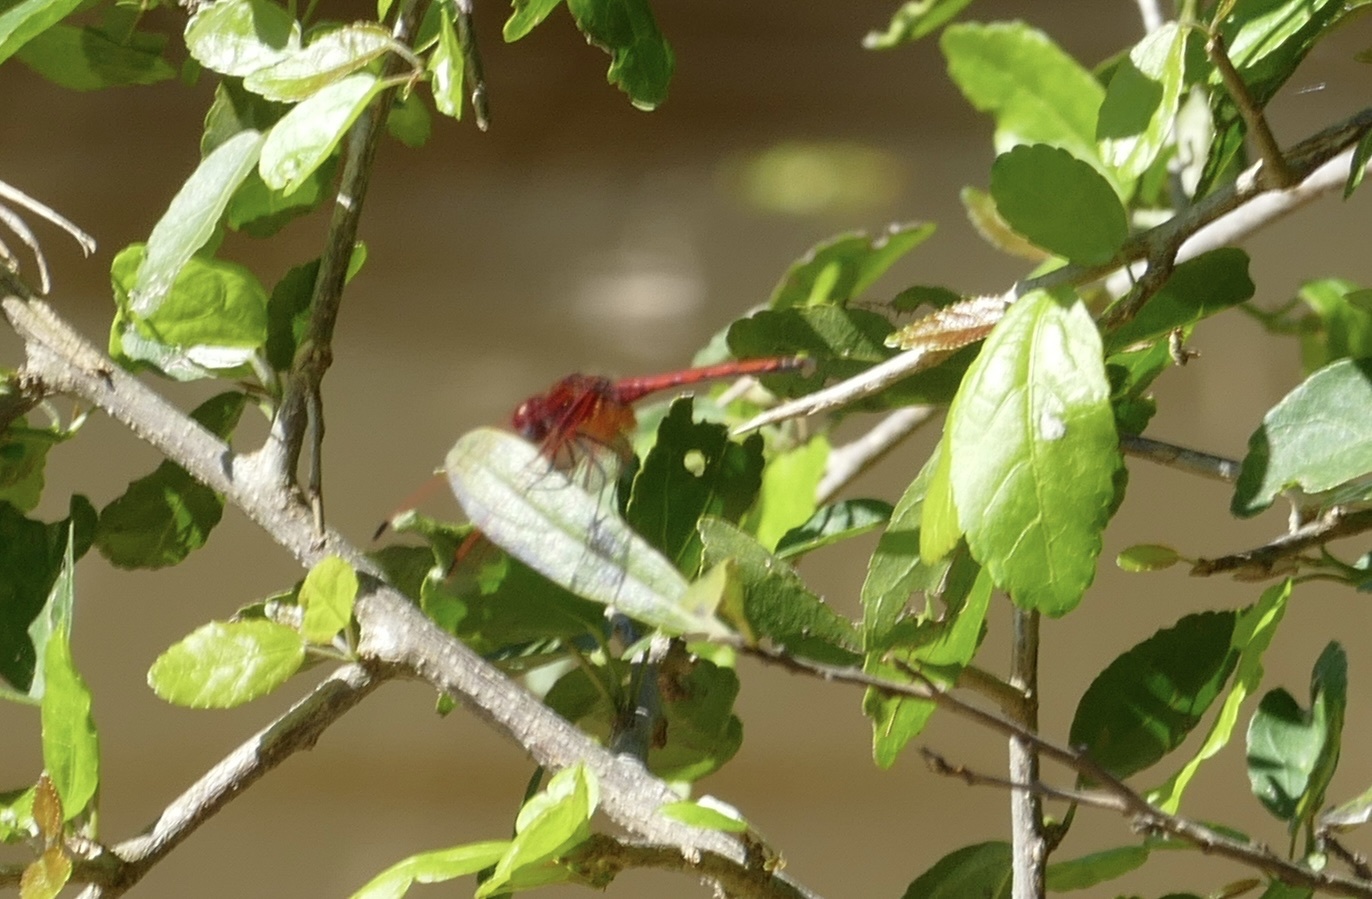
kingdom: Animalia
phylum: Arthropoda
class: Insecta
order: Odonata
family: Libellulidae
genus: Trithemis
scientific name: Trithemis arteriosa
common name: Red-veined dropwing
